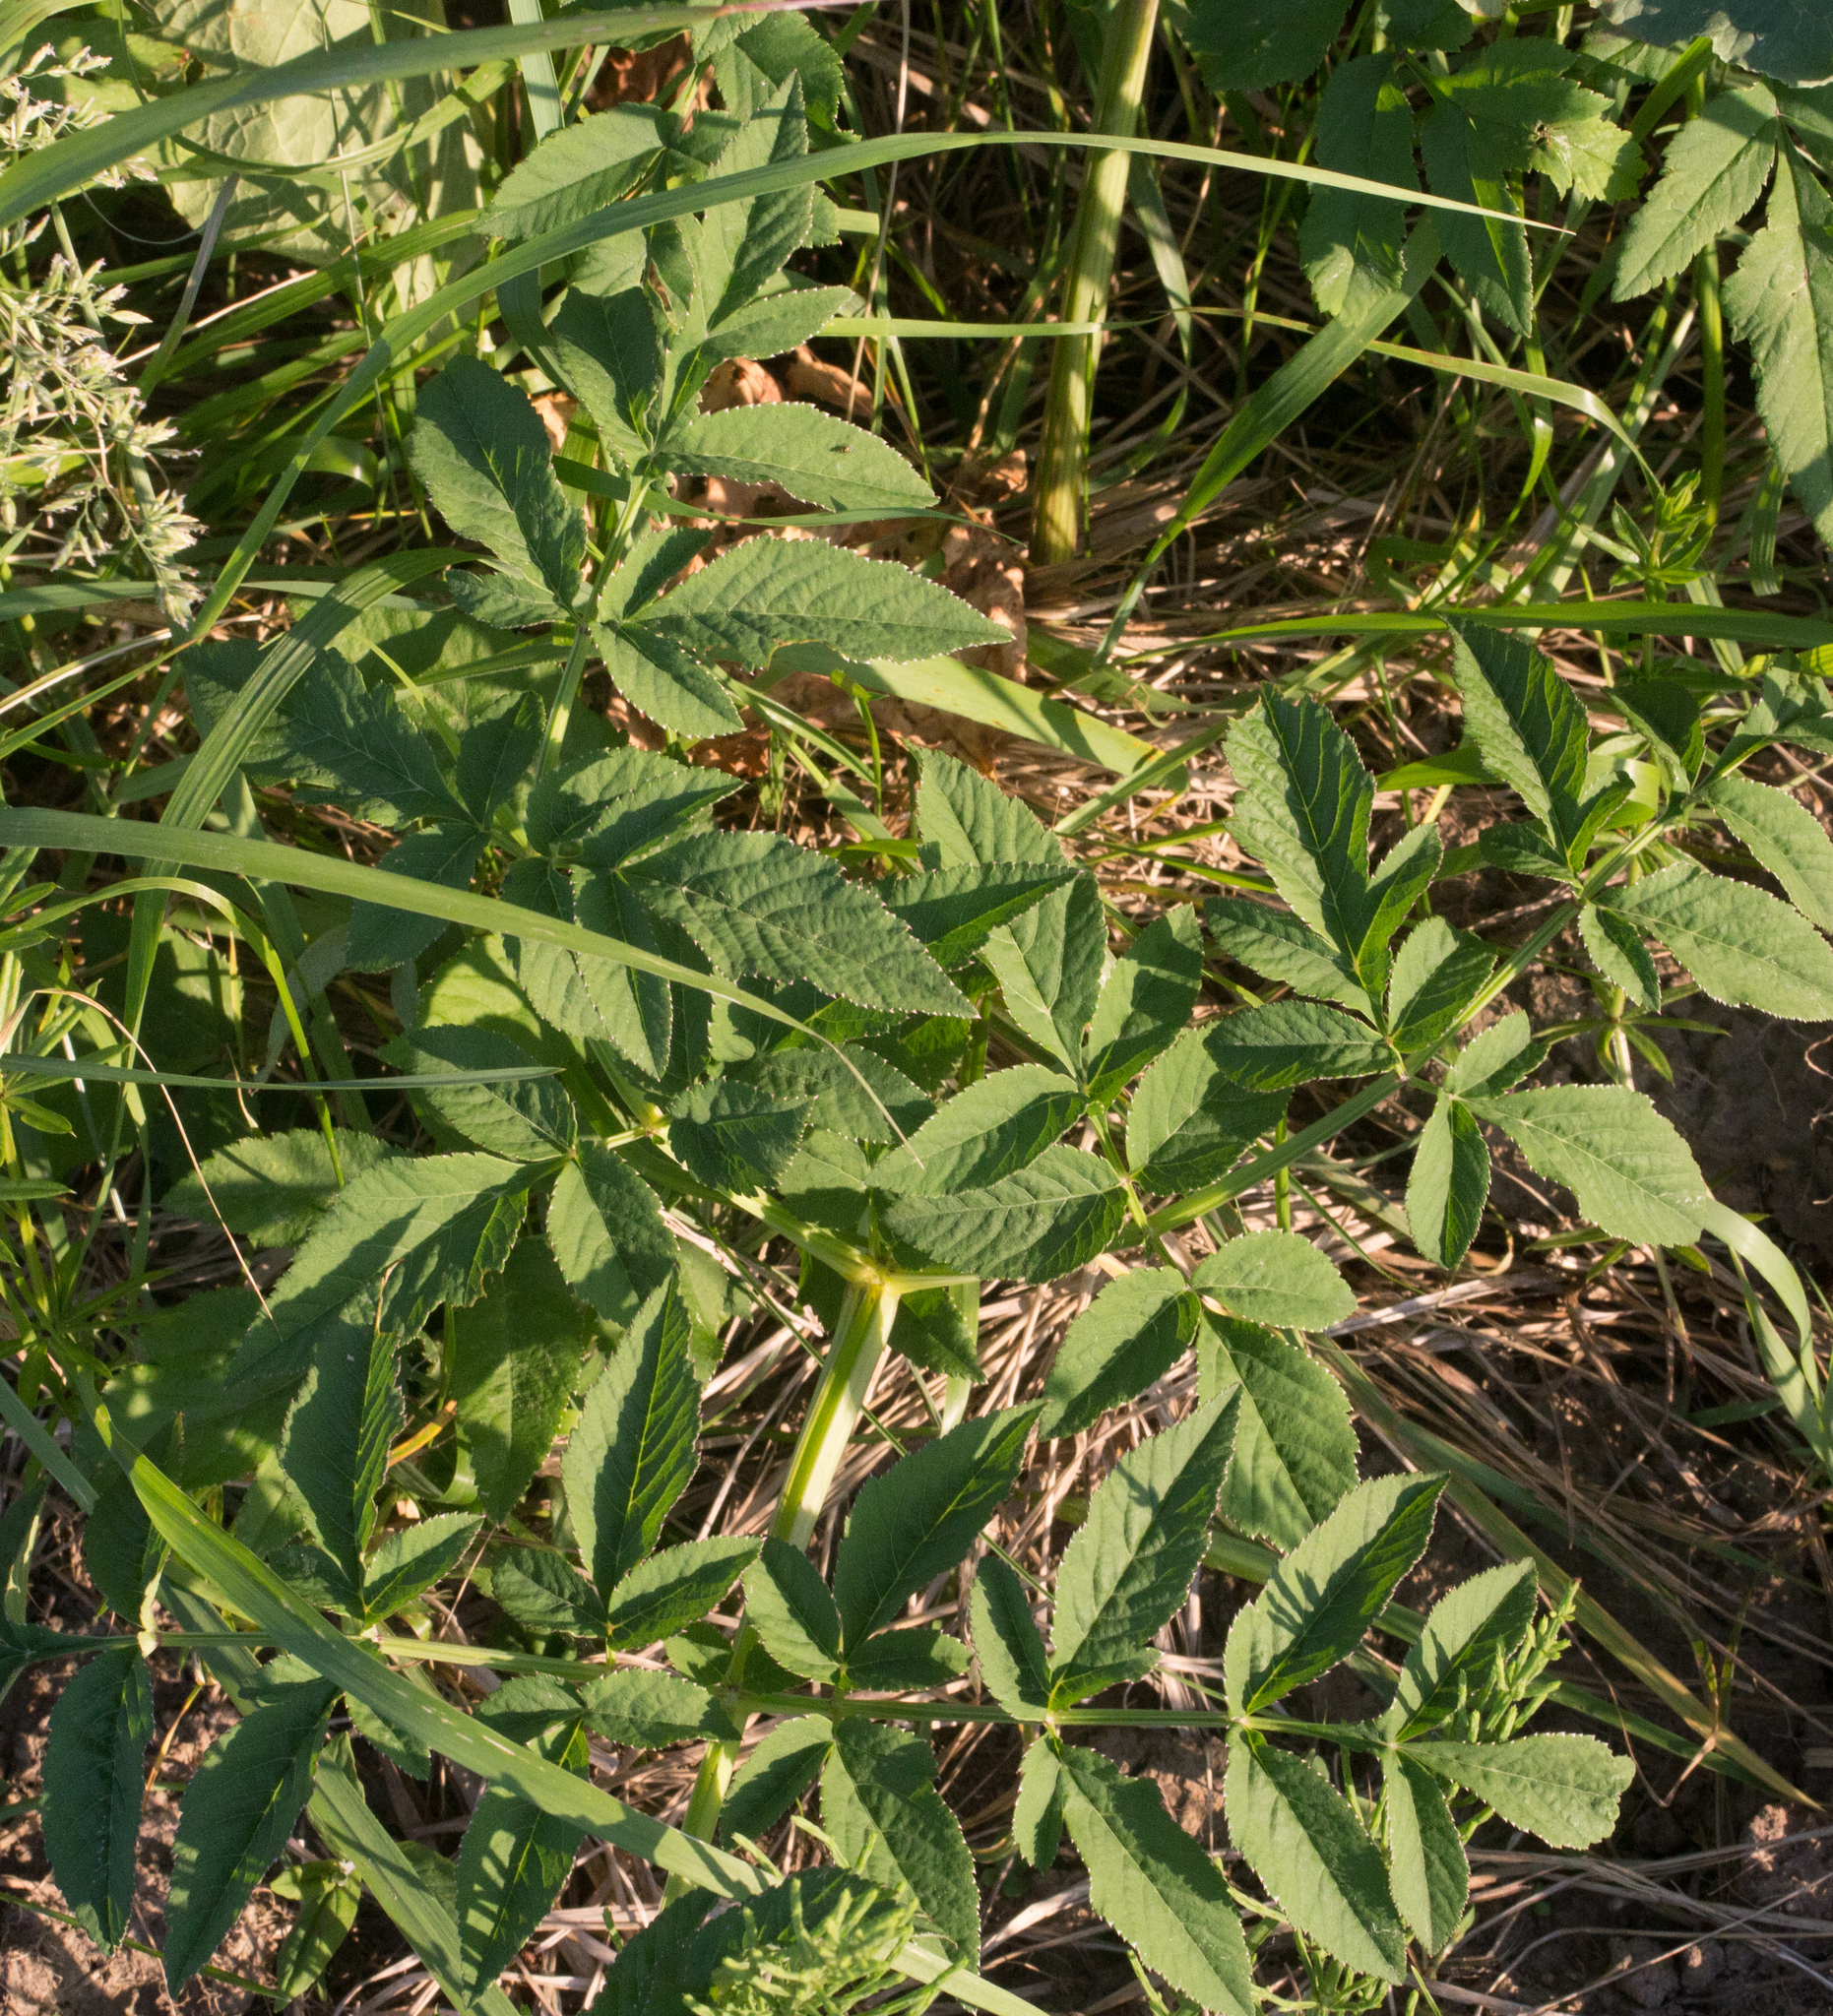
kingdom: Plantae
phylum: Tracheophyta
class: Magnoliopsida
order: Apiales
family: Apiaceae
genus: Angelica
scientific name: Angelica sylvestris
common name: Wild angelica
